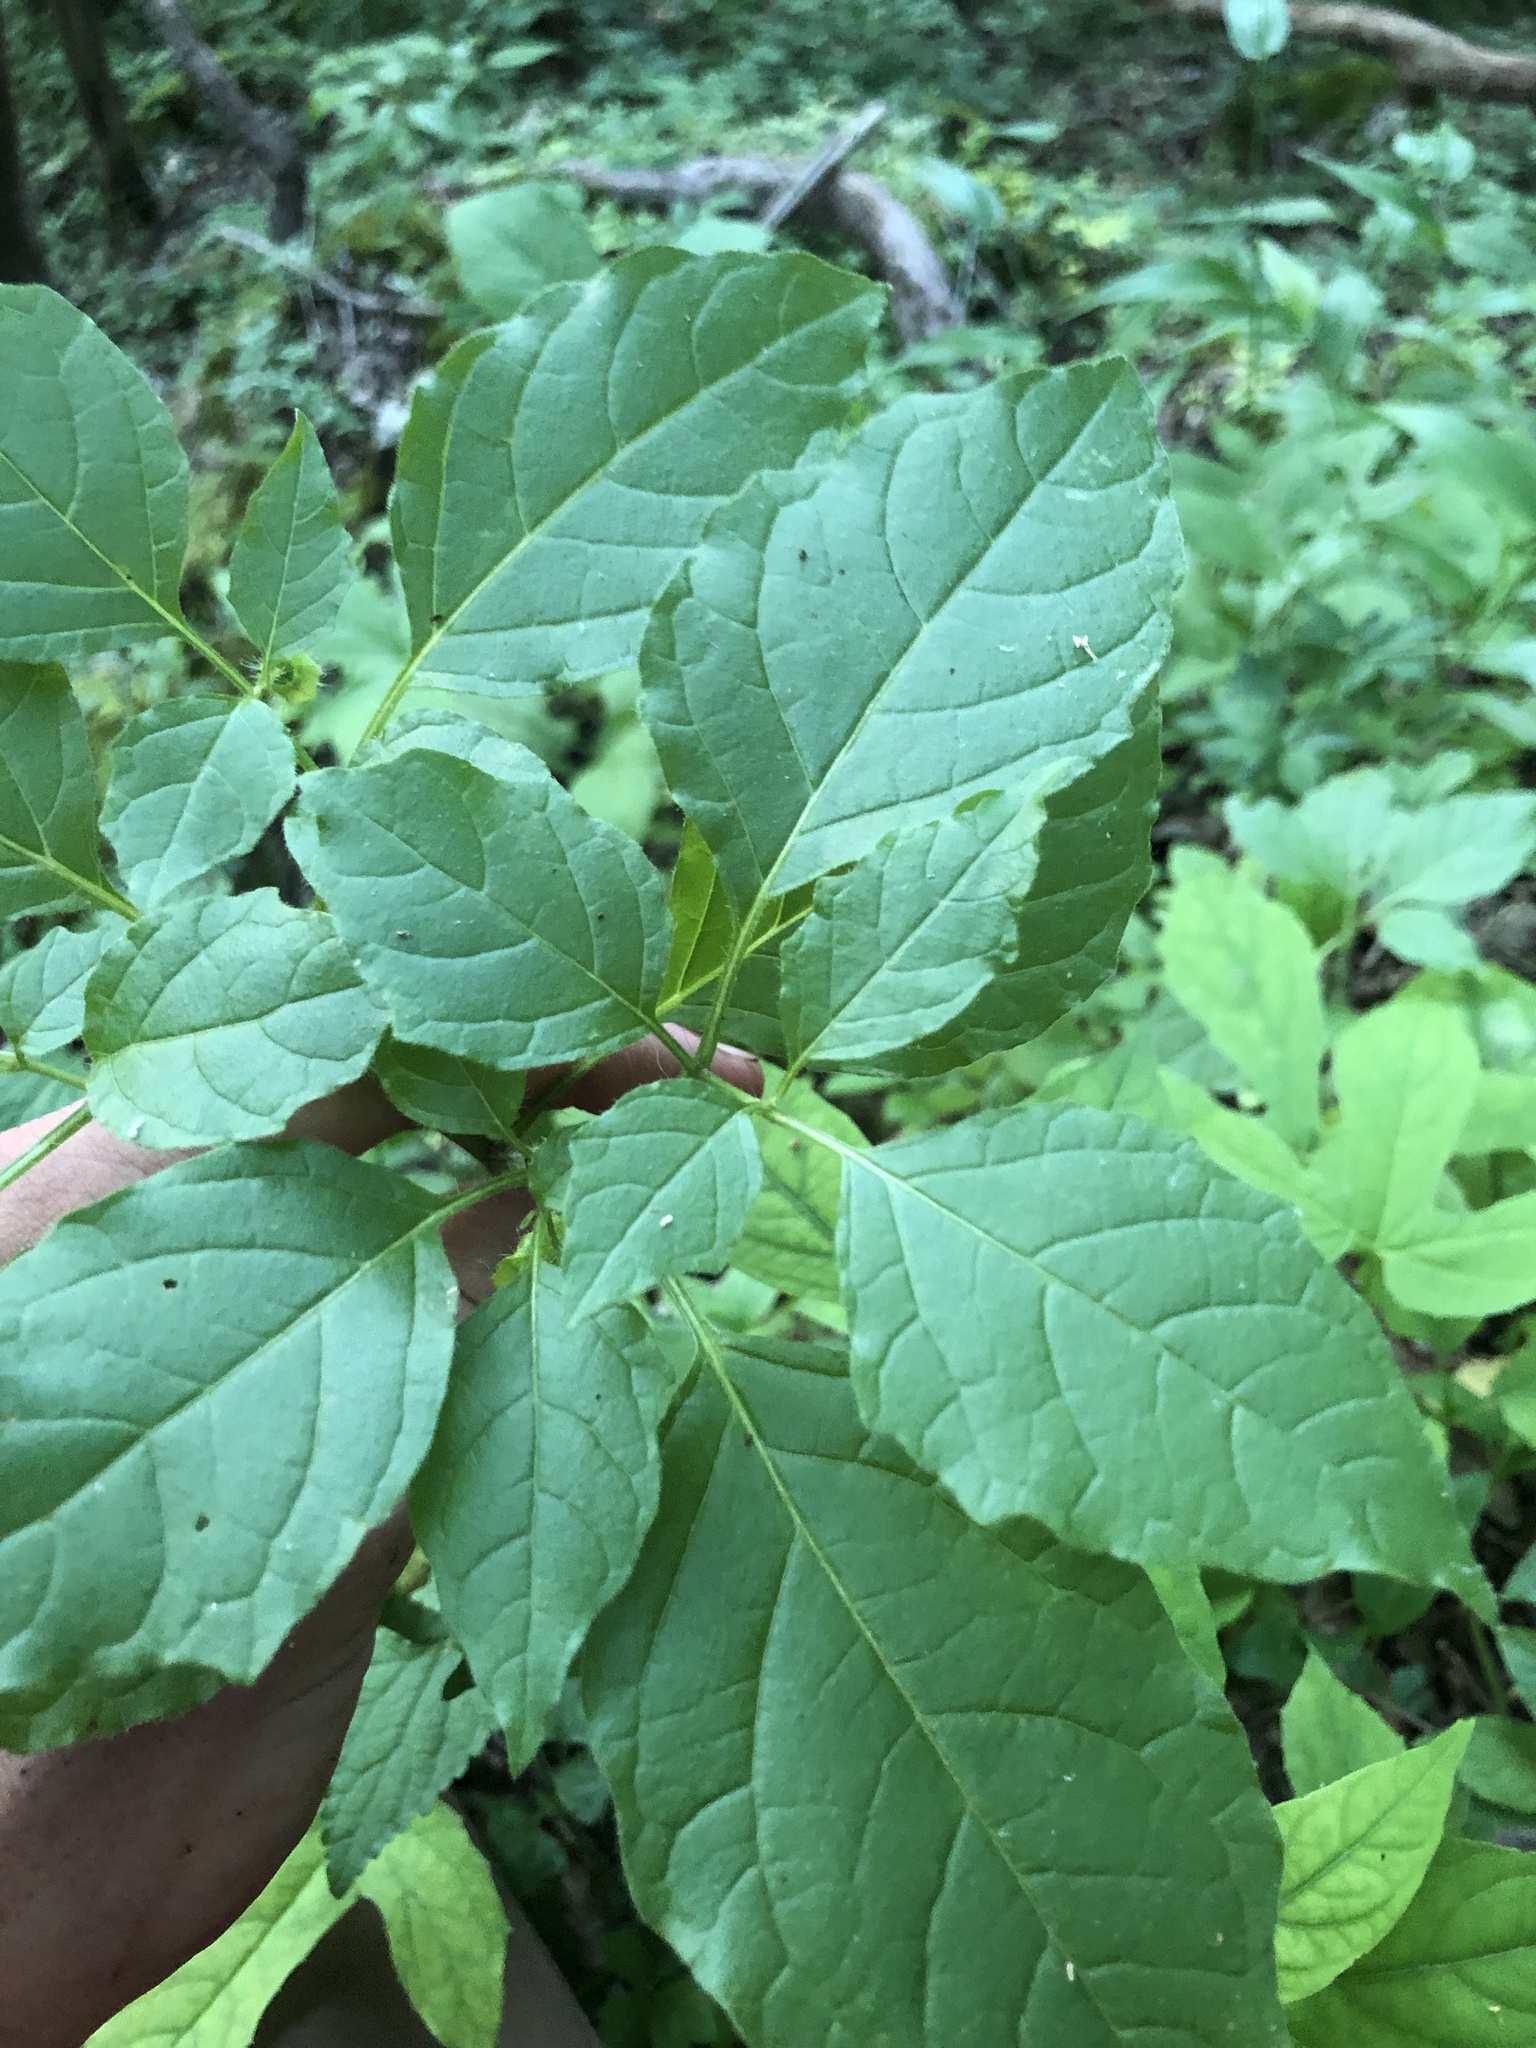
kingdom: Plantae
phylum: Tracheophyta
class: Magnoliopsida
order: Solanales
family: Solanaceae
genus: Physalis
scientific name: Physalis heterophylla
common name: Clammy ground-cherry
